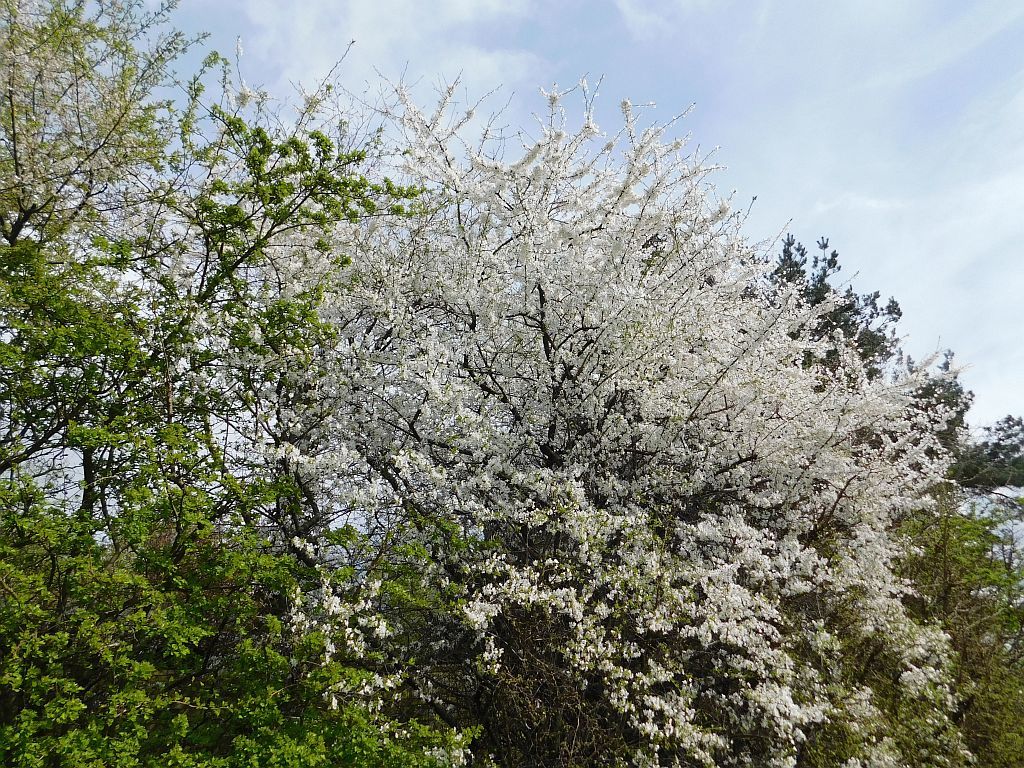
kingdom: Plantae
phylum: Tracheophyta
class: Magnoliopsida
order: Rosales
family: Rosaceae
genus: Prunus
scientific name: Prunus cerasifera
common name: Cherry plum
